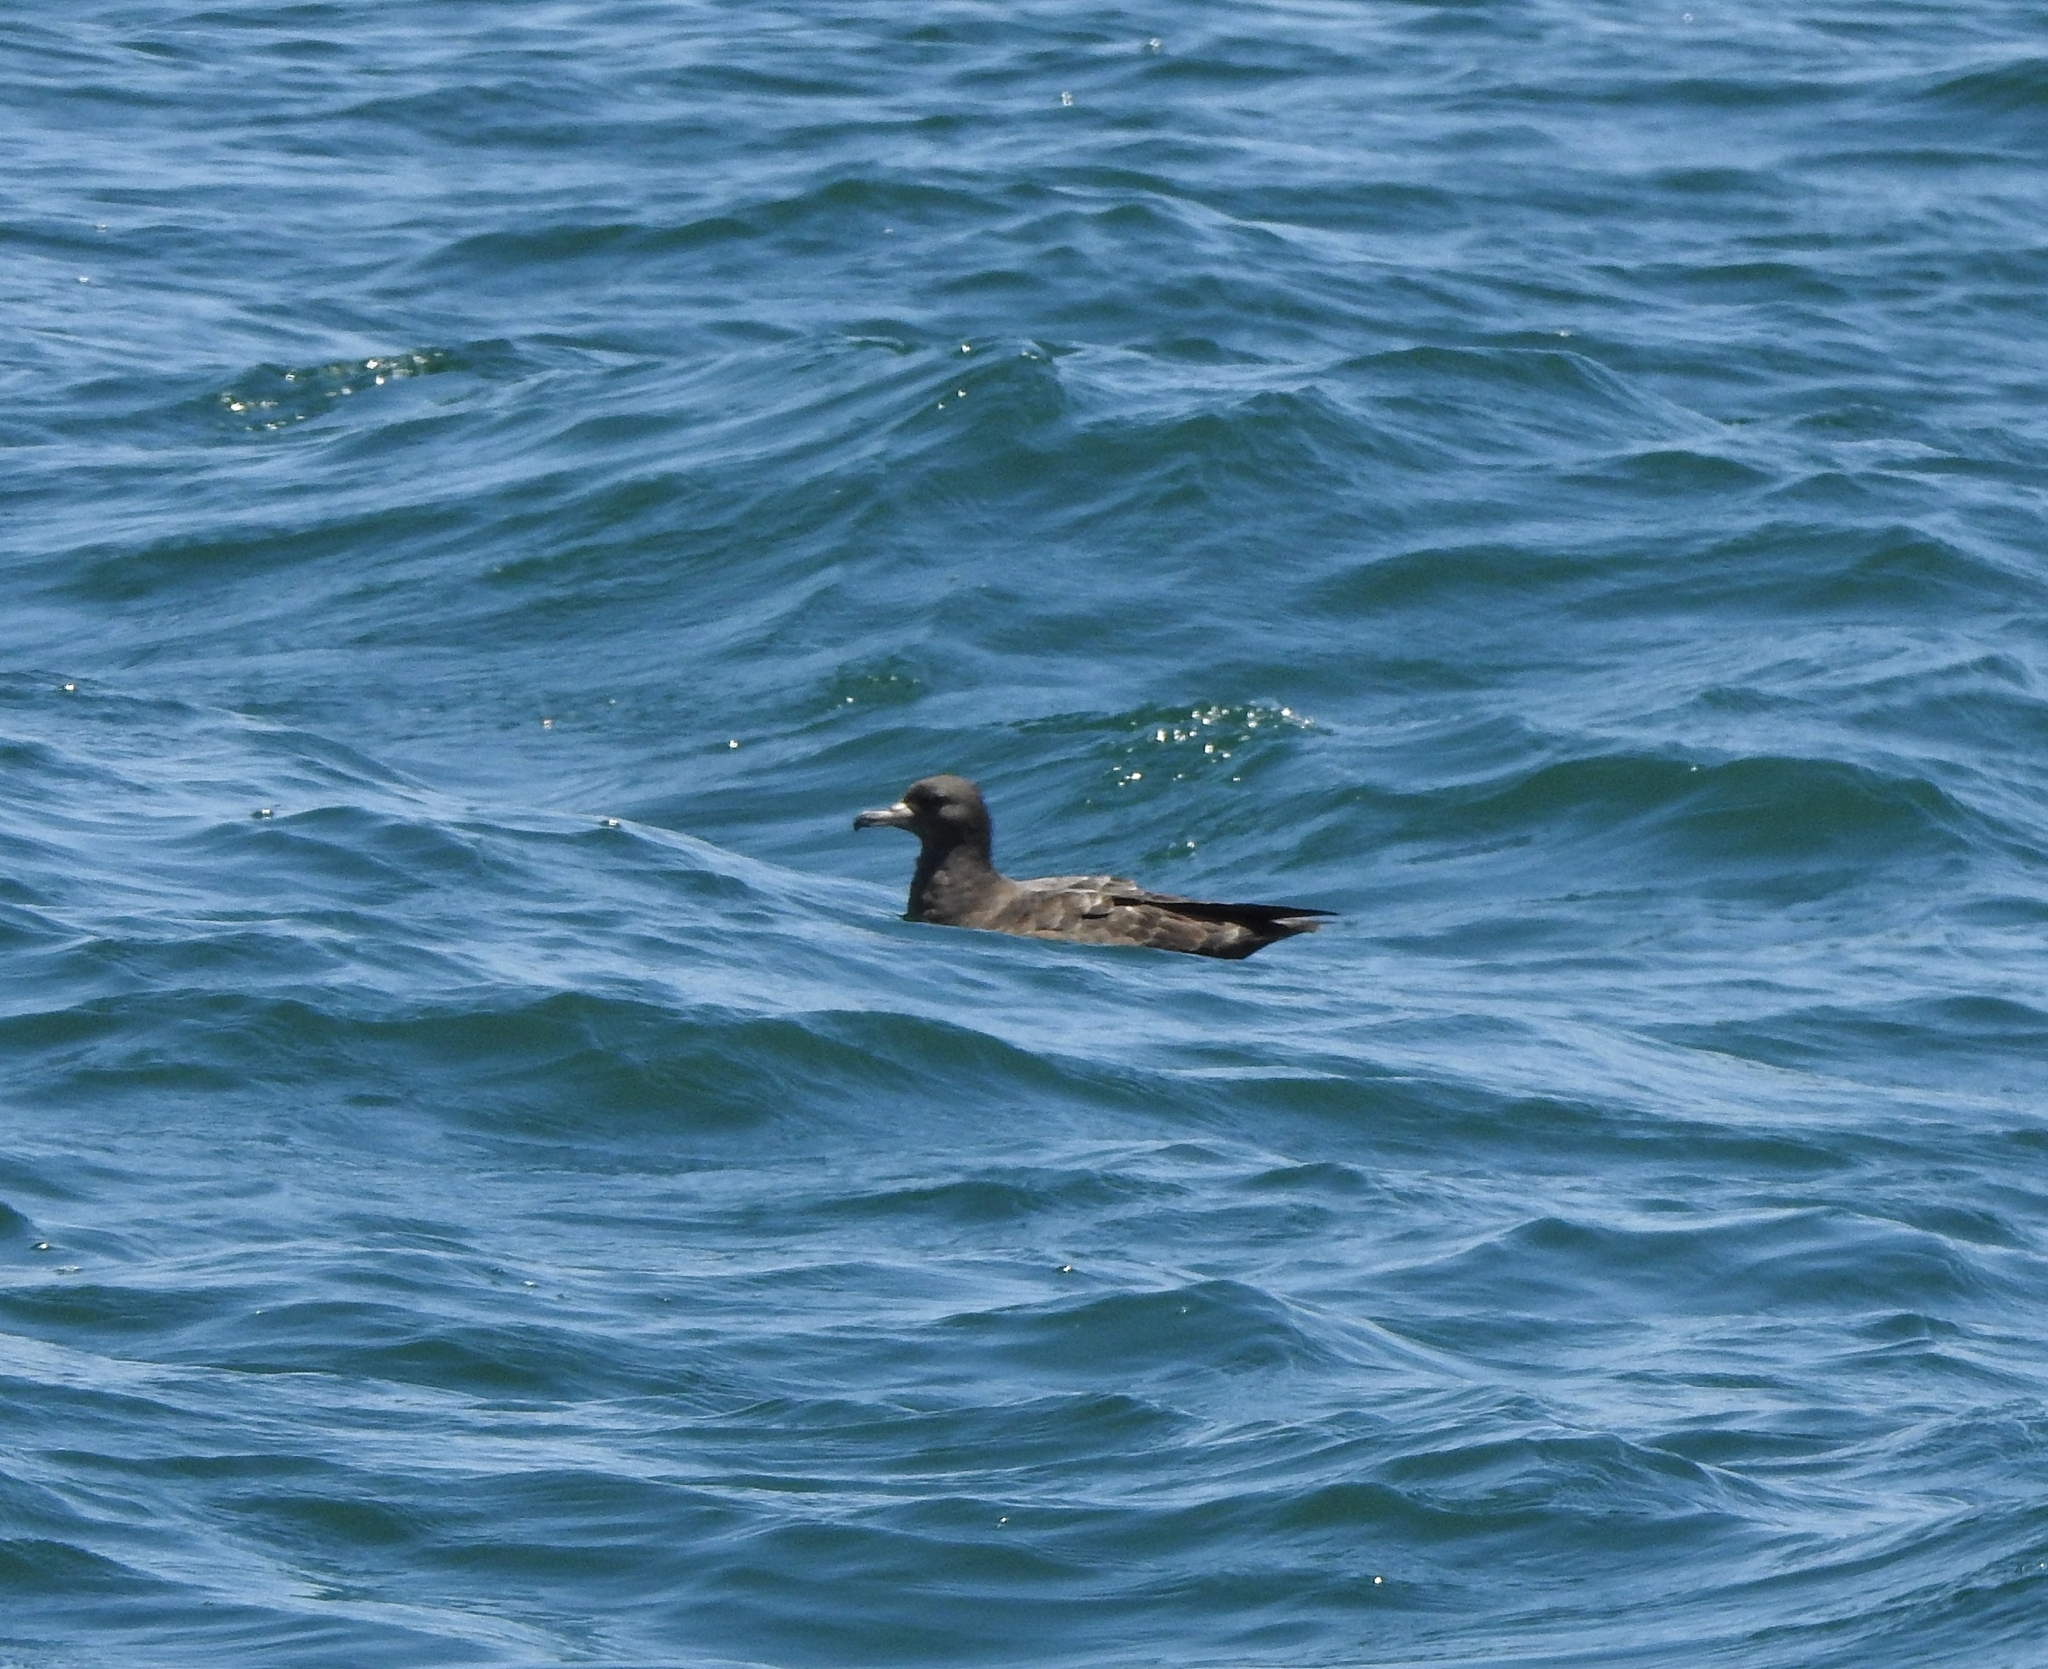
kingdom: Animalia
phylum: Chordata
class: Aves
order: Procellariiformes
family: Procellariidae
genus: Puffinus
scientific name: Puffinus carneipes
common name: Flesh-footed shearwater
